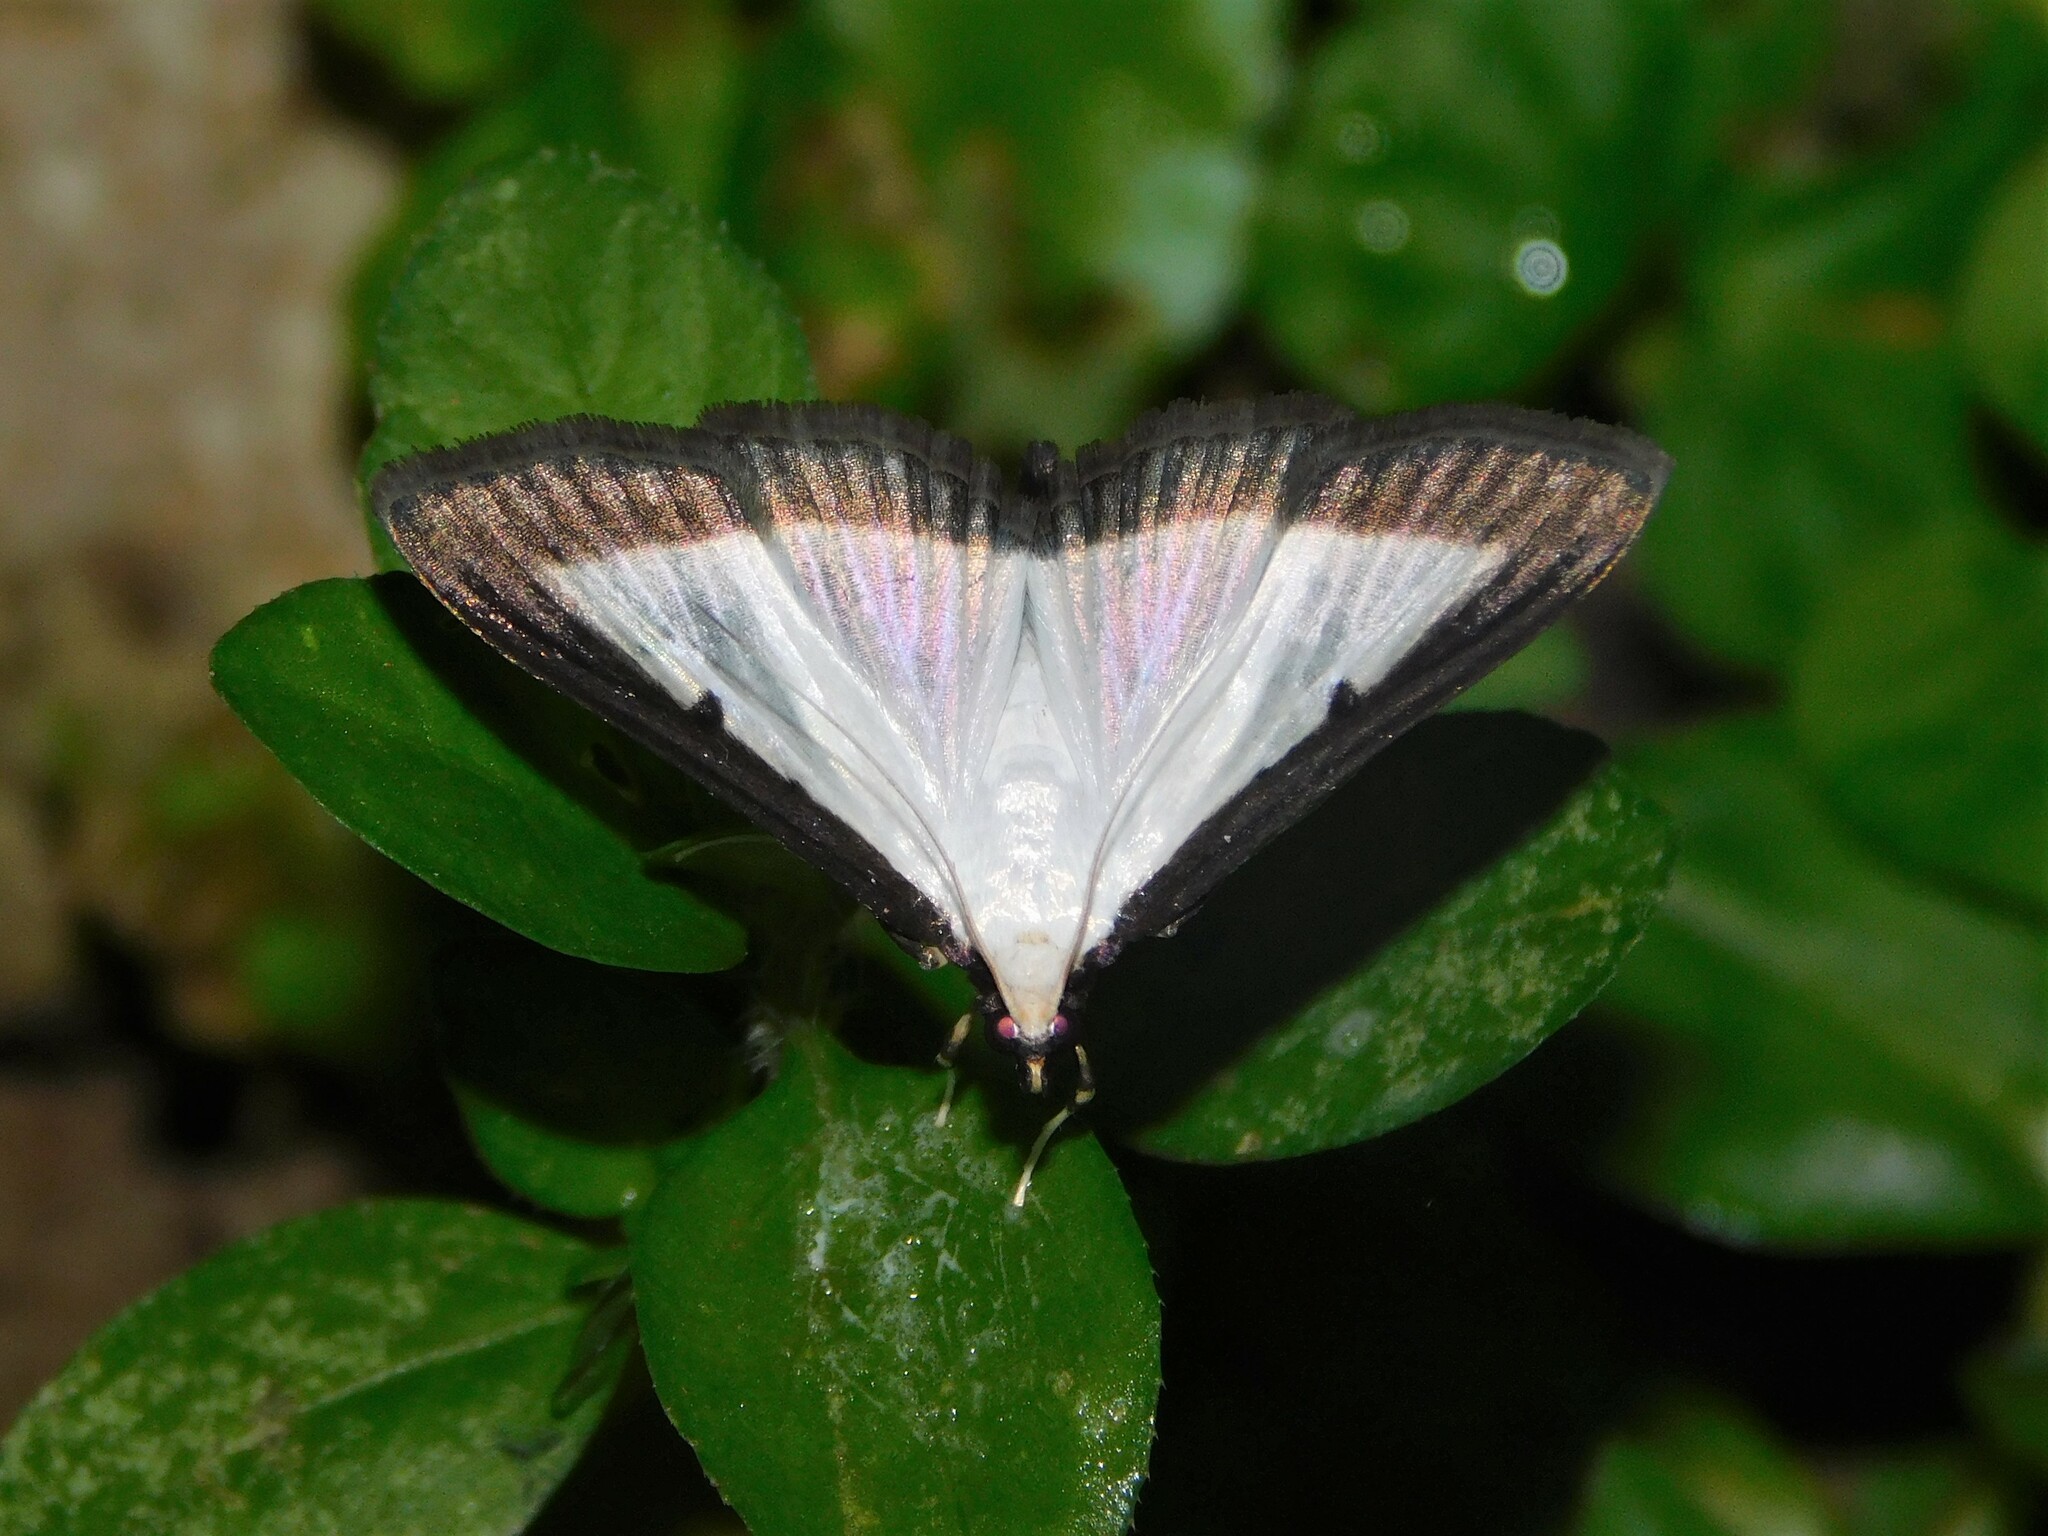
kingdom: Animalia
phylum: Arthropoda
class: Insecta
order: Lepidoptera
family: Crambidae
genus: Cryptographis
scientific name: Cryptographis elealis
